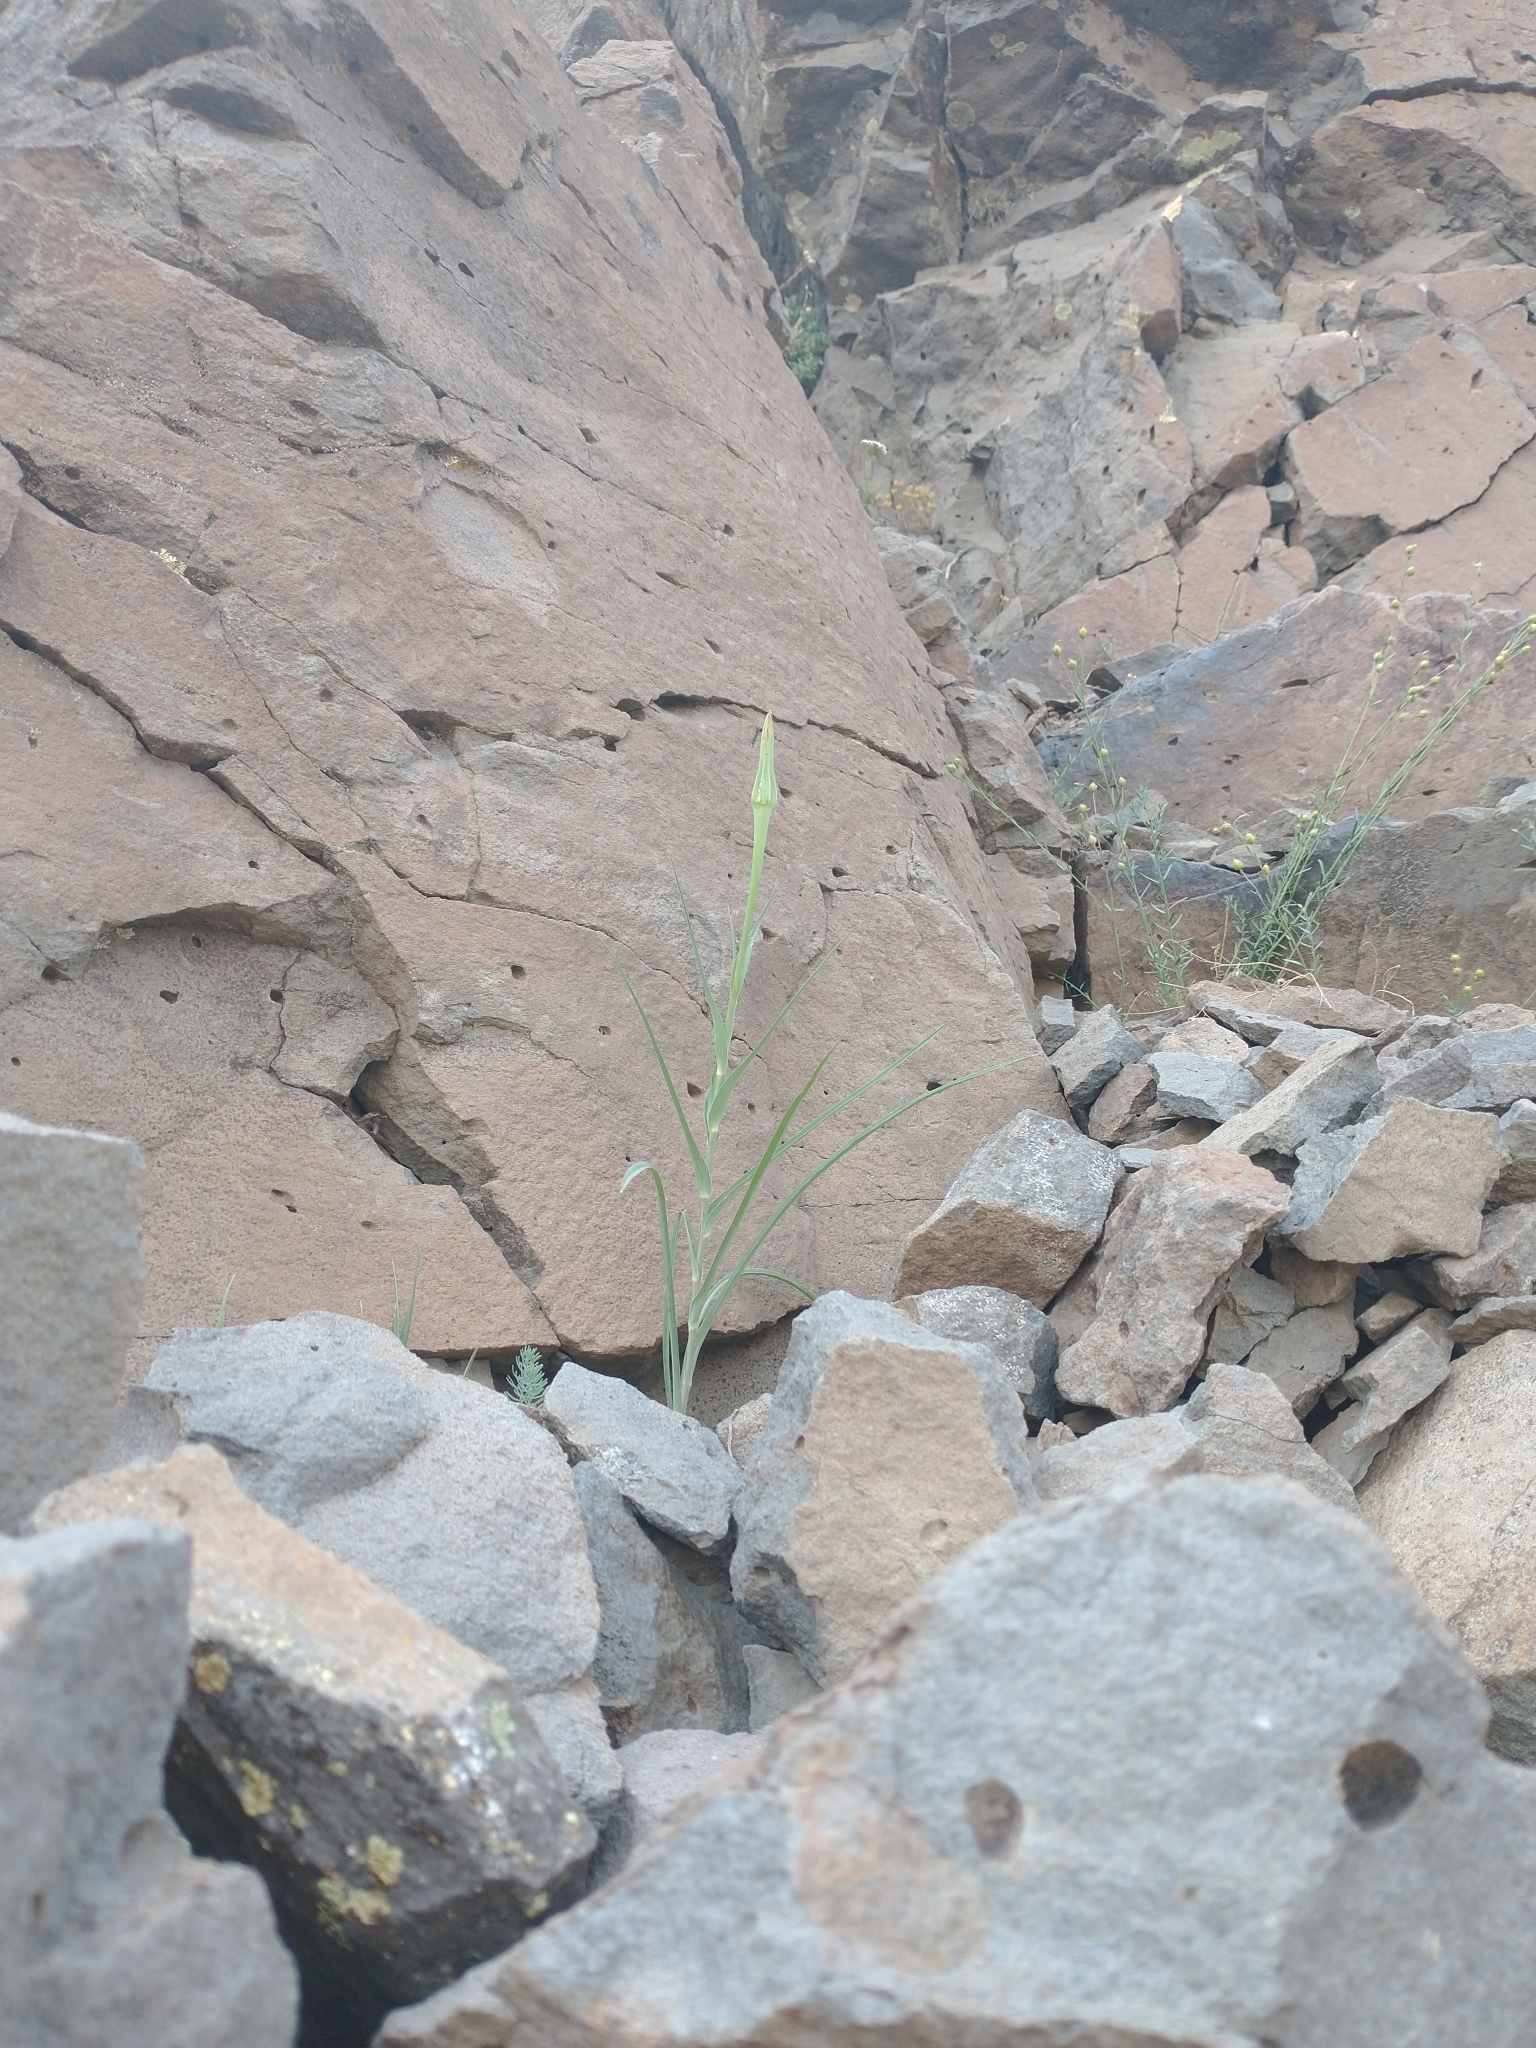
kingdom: Plantae
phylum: Tracheophyta
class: Magnoliopsida
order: Asterales
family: Asteraceae
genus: Tragopogon
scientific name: Tragopogon dubius
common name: Yellow salsify
